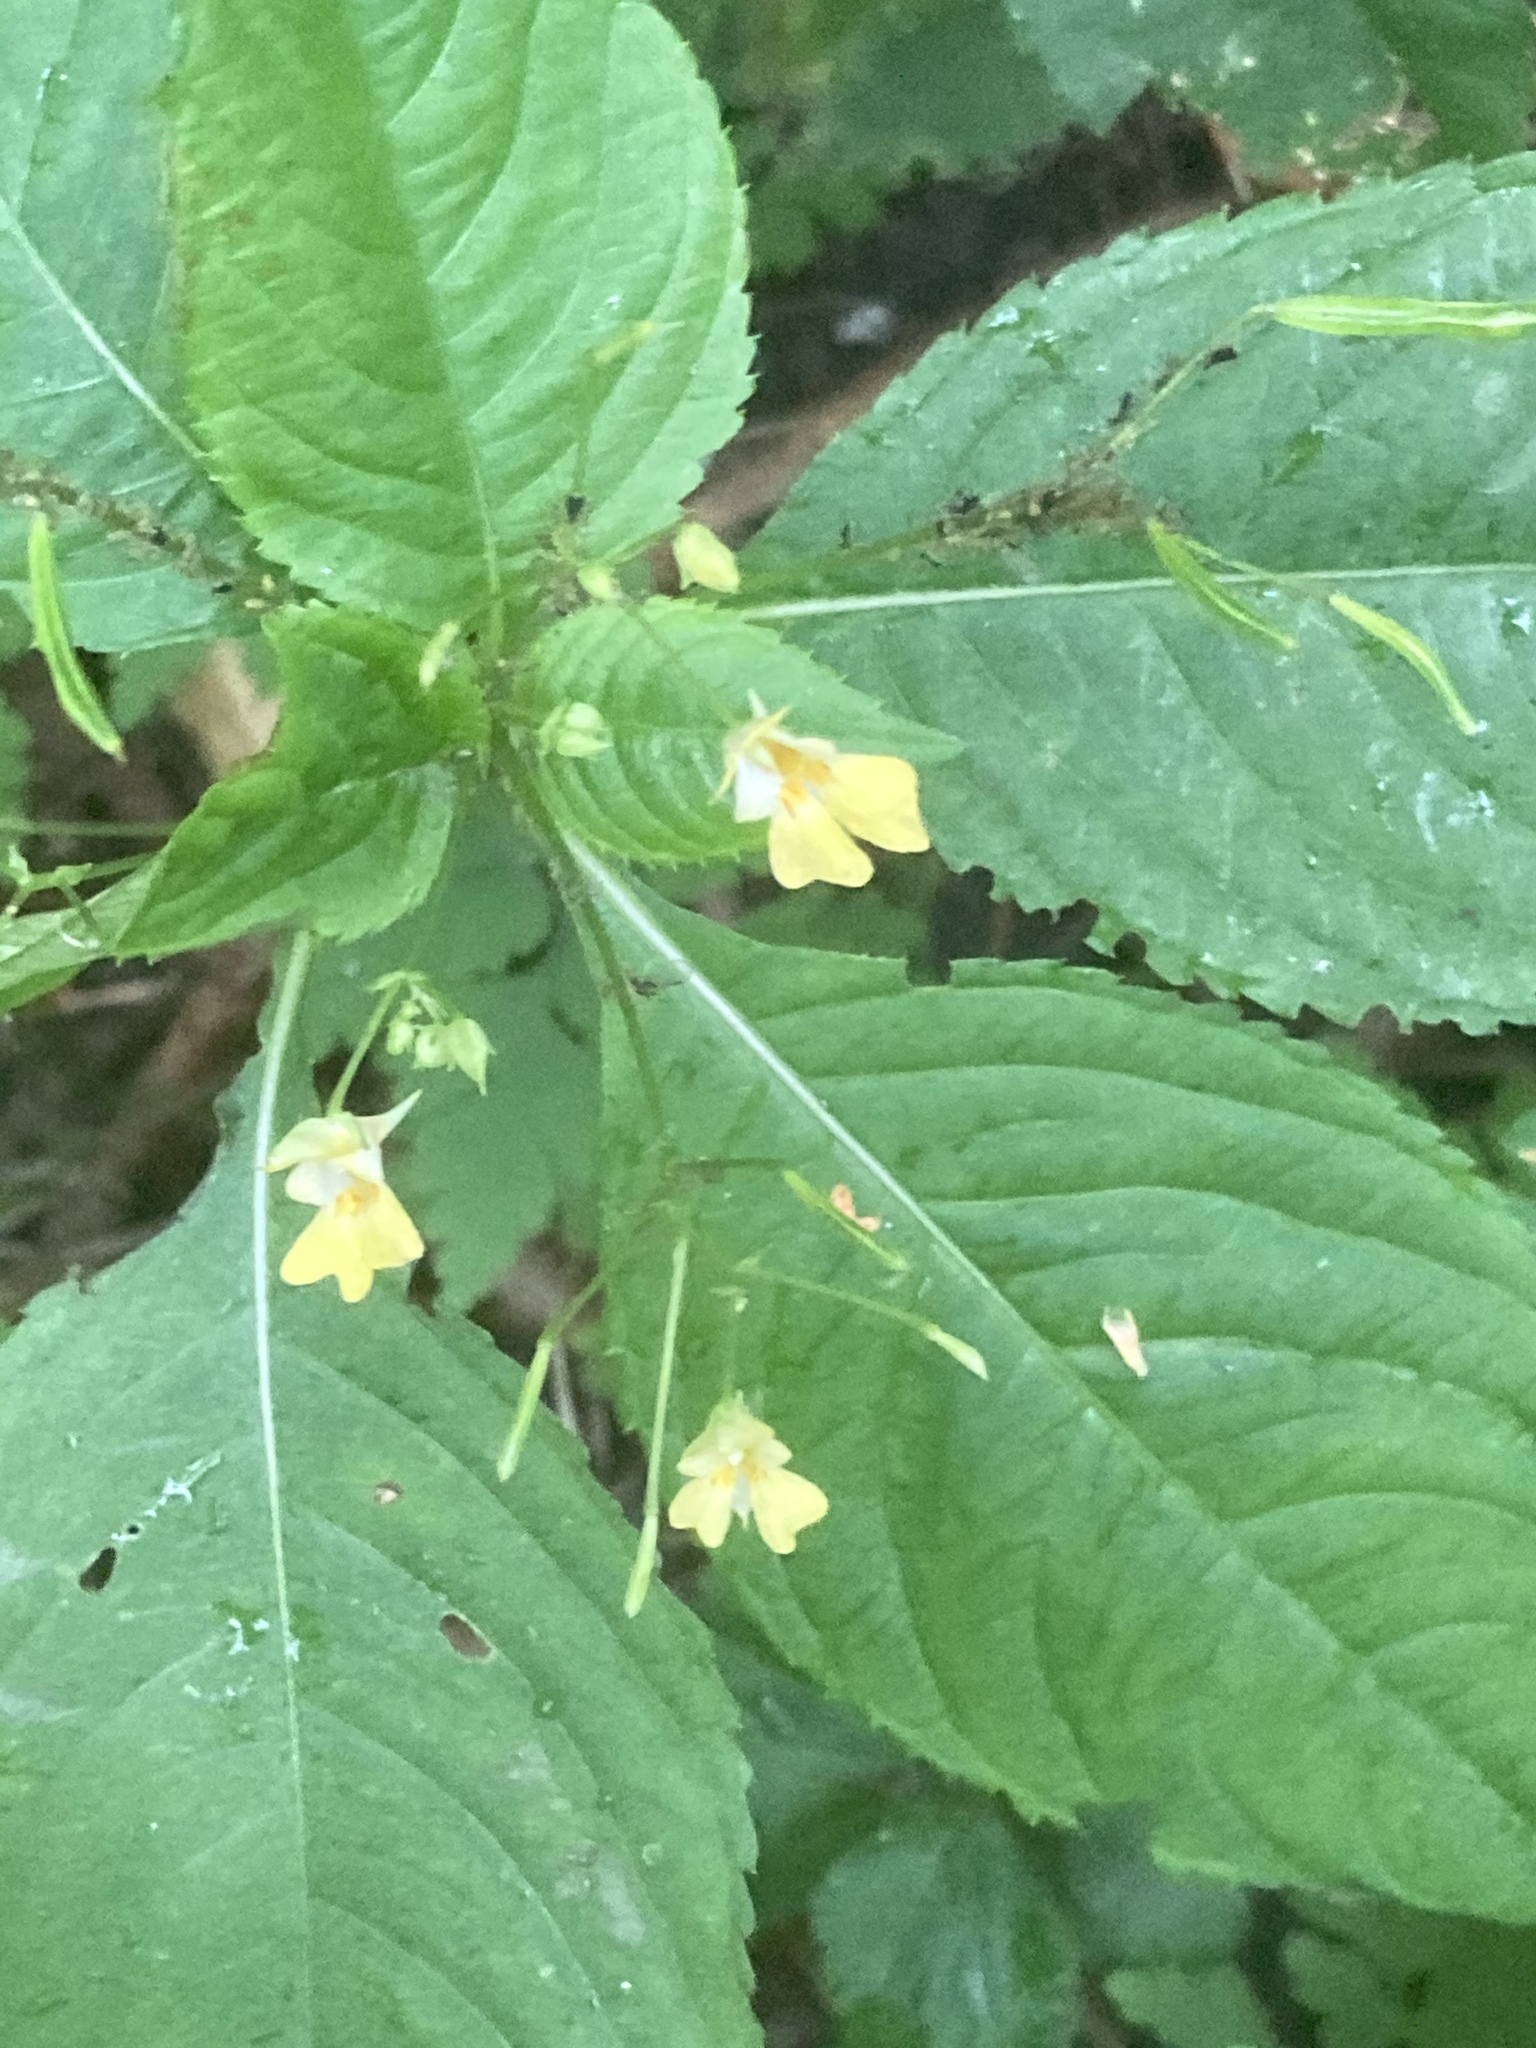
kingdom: Plantae
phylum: Tracheophyta
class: Magnoliopsida
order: Ericales
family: Balsaminaceae
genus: Impatiens
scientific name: Impatiens parviflora
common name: Small balsam
